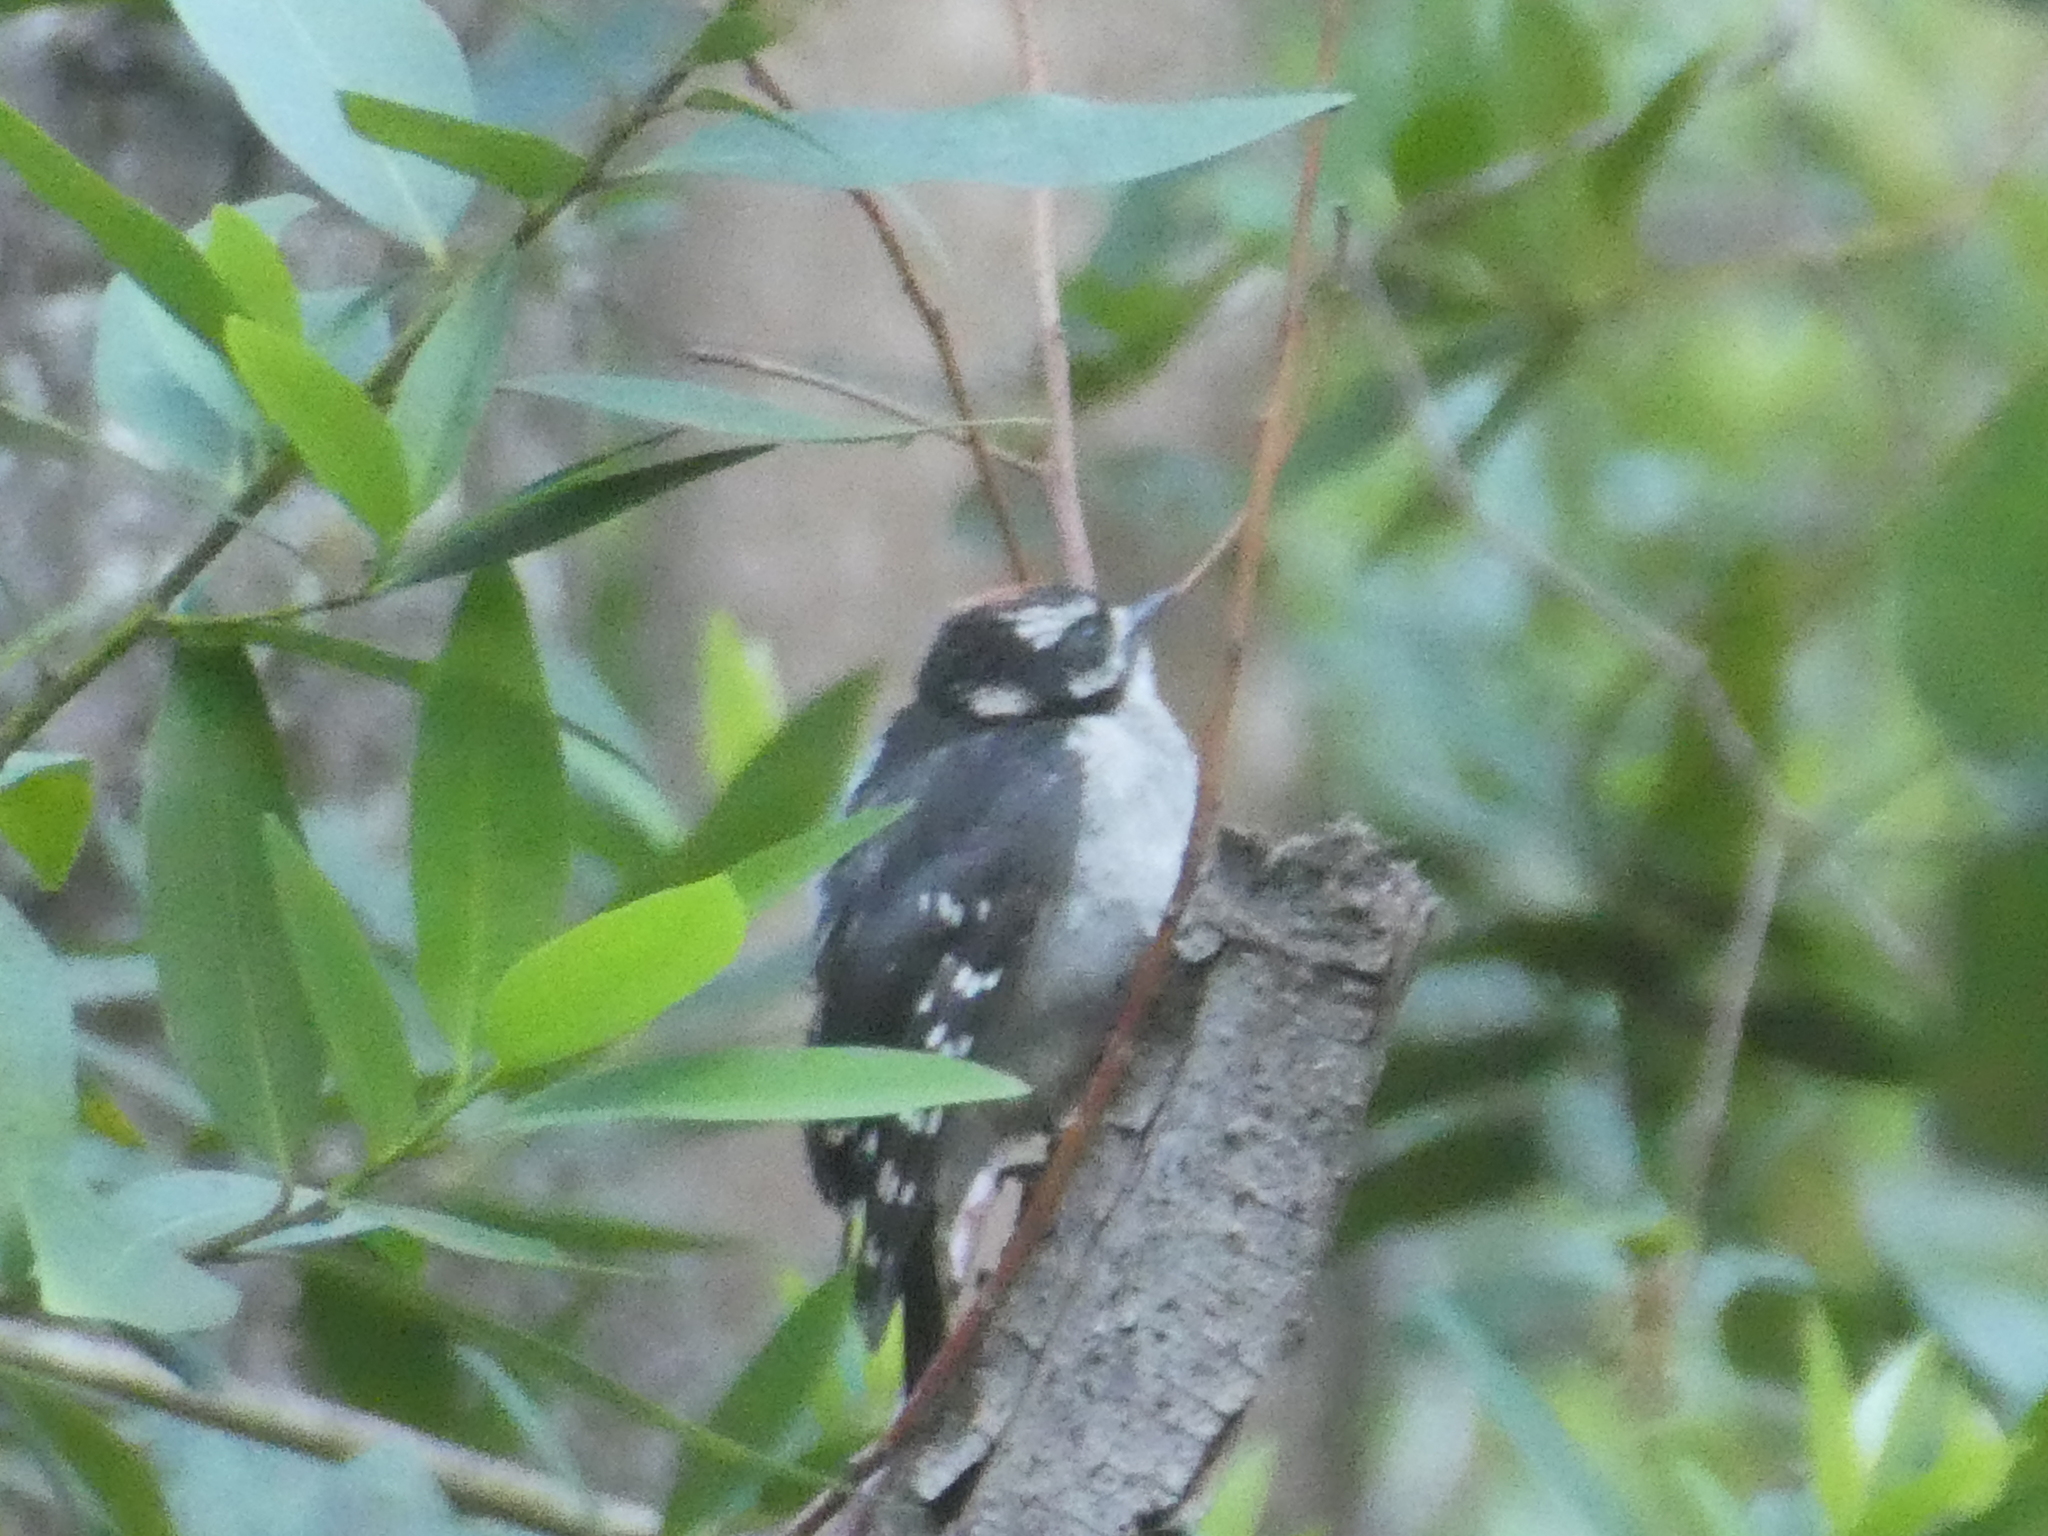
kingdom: Animalia
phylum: Chordata
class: Aves
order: Piciformes
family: Picidae
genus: Dryobates
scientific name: Dryobates pubescens
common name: Downy woodpecker
